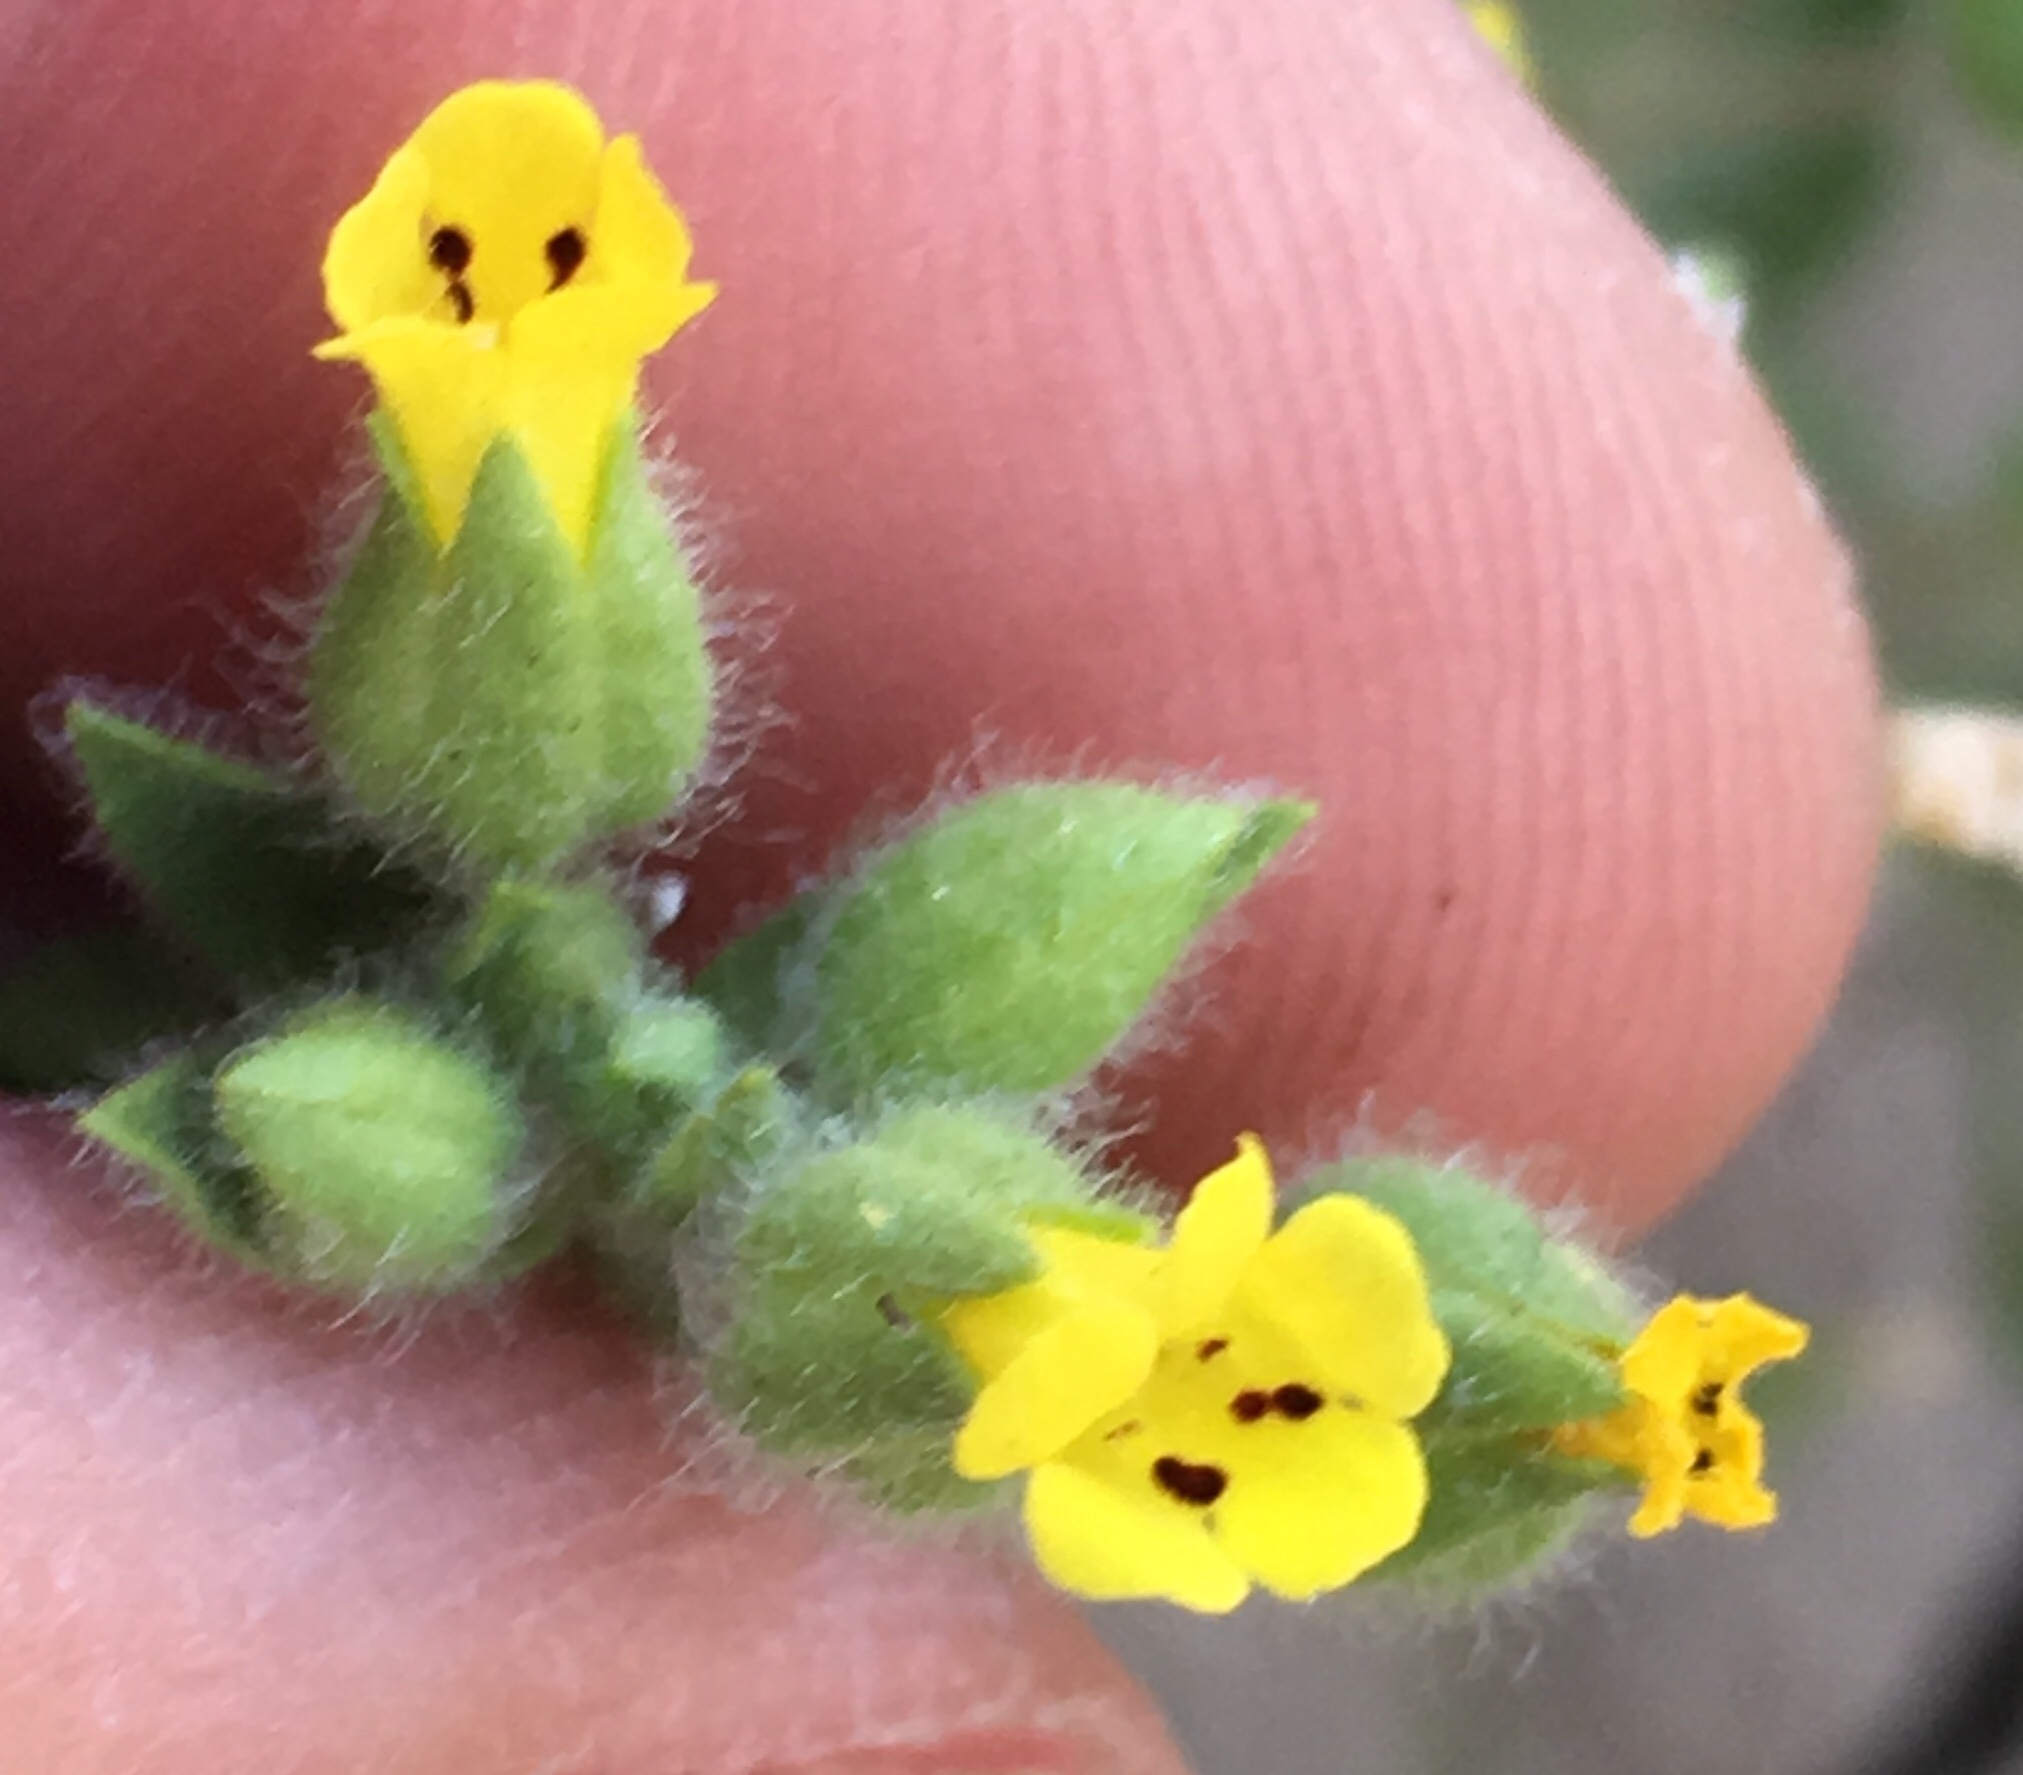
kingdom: Plantae
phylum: Tracheophyta
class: Magnoliopsida
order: Lamiales
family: Phrymaceae
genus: Mimetanthe
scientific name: Mimetanthe pilosa
